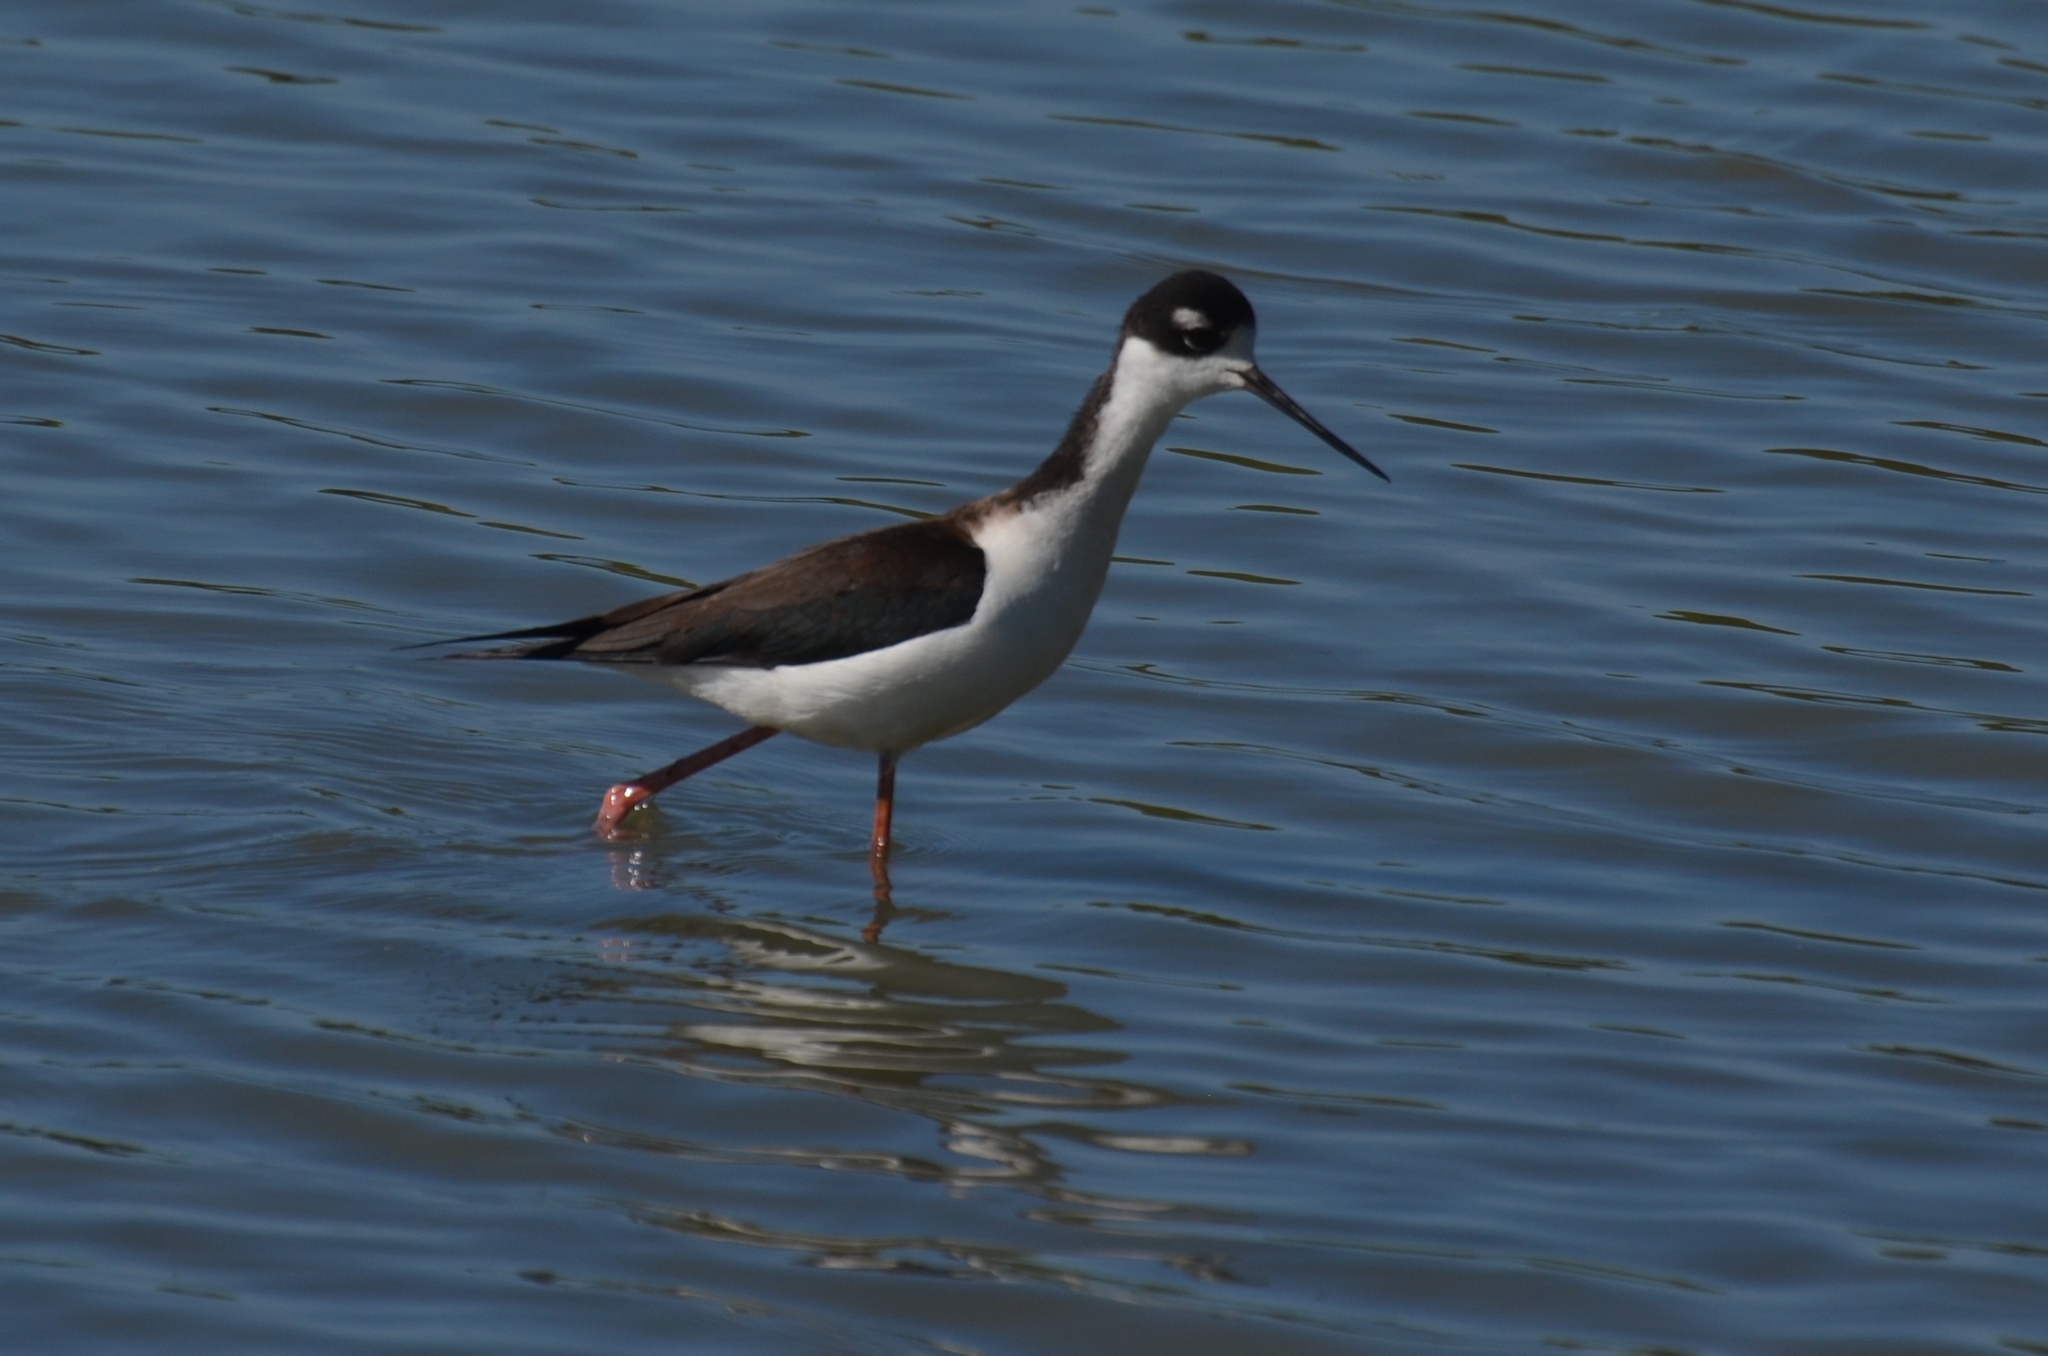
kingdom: Animalia
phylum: Chordata
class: Aves
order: Charadriiformes
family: Recurvirostridae
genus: Himantopus
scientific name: Himantopus mexicanus
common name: Black-necked stilt
